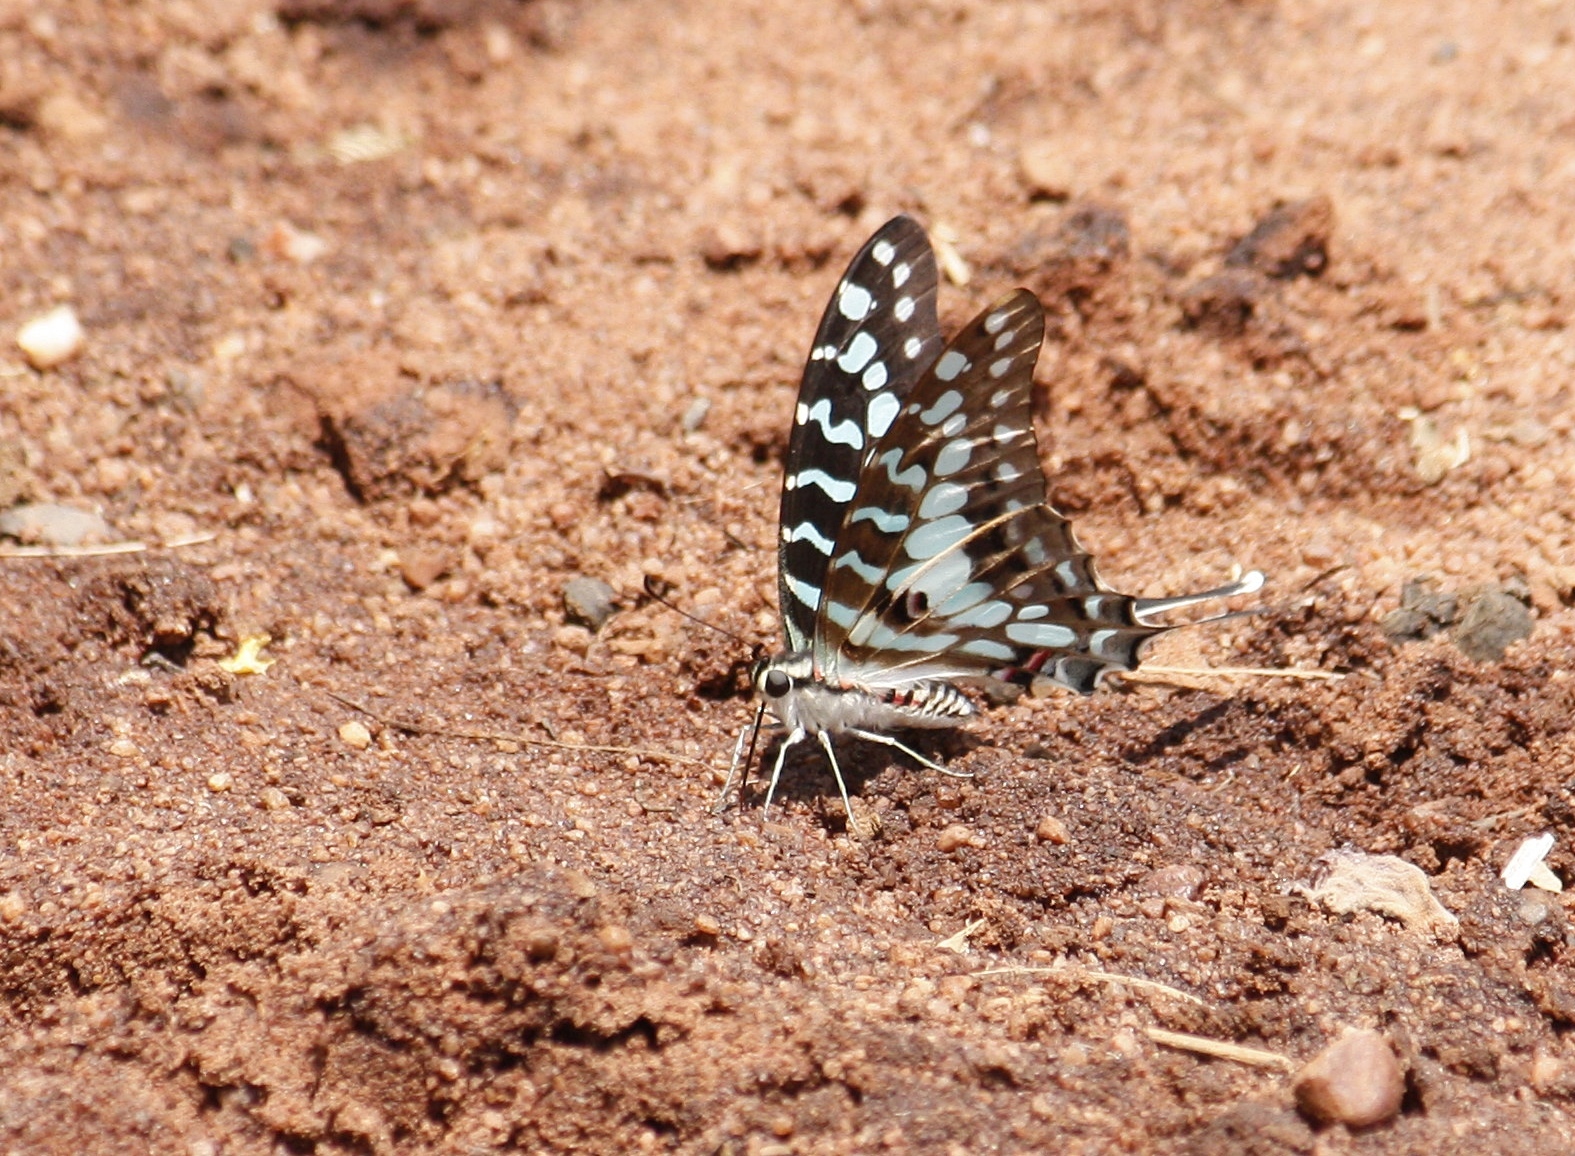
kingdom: Animalia
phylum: Arthropoda
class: Insecta
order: Lepidoptera
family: Papilionidae
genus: Graphium
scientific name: Graphium antheus
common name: Large striped swordtail
